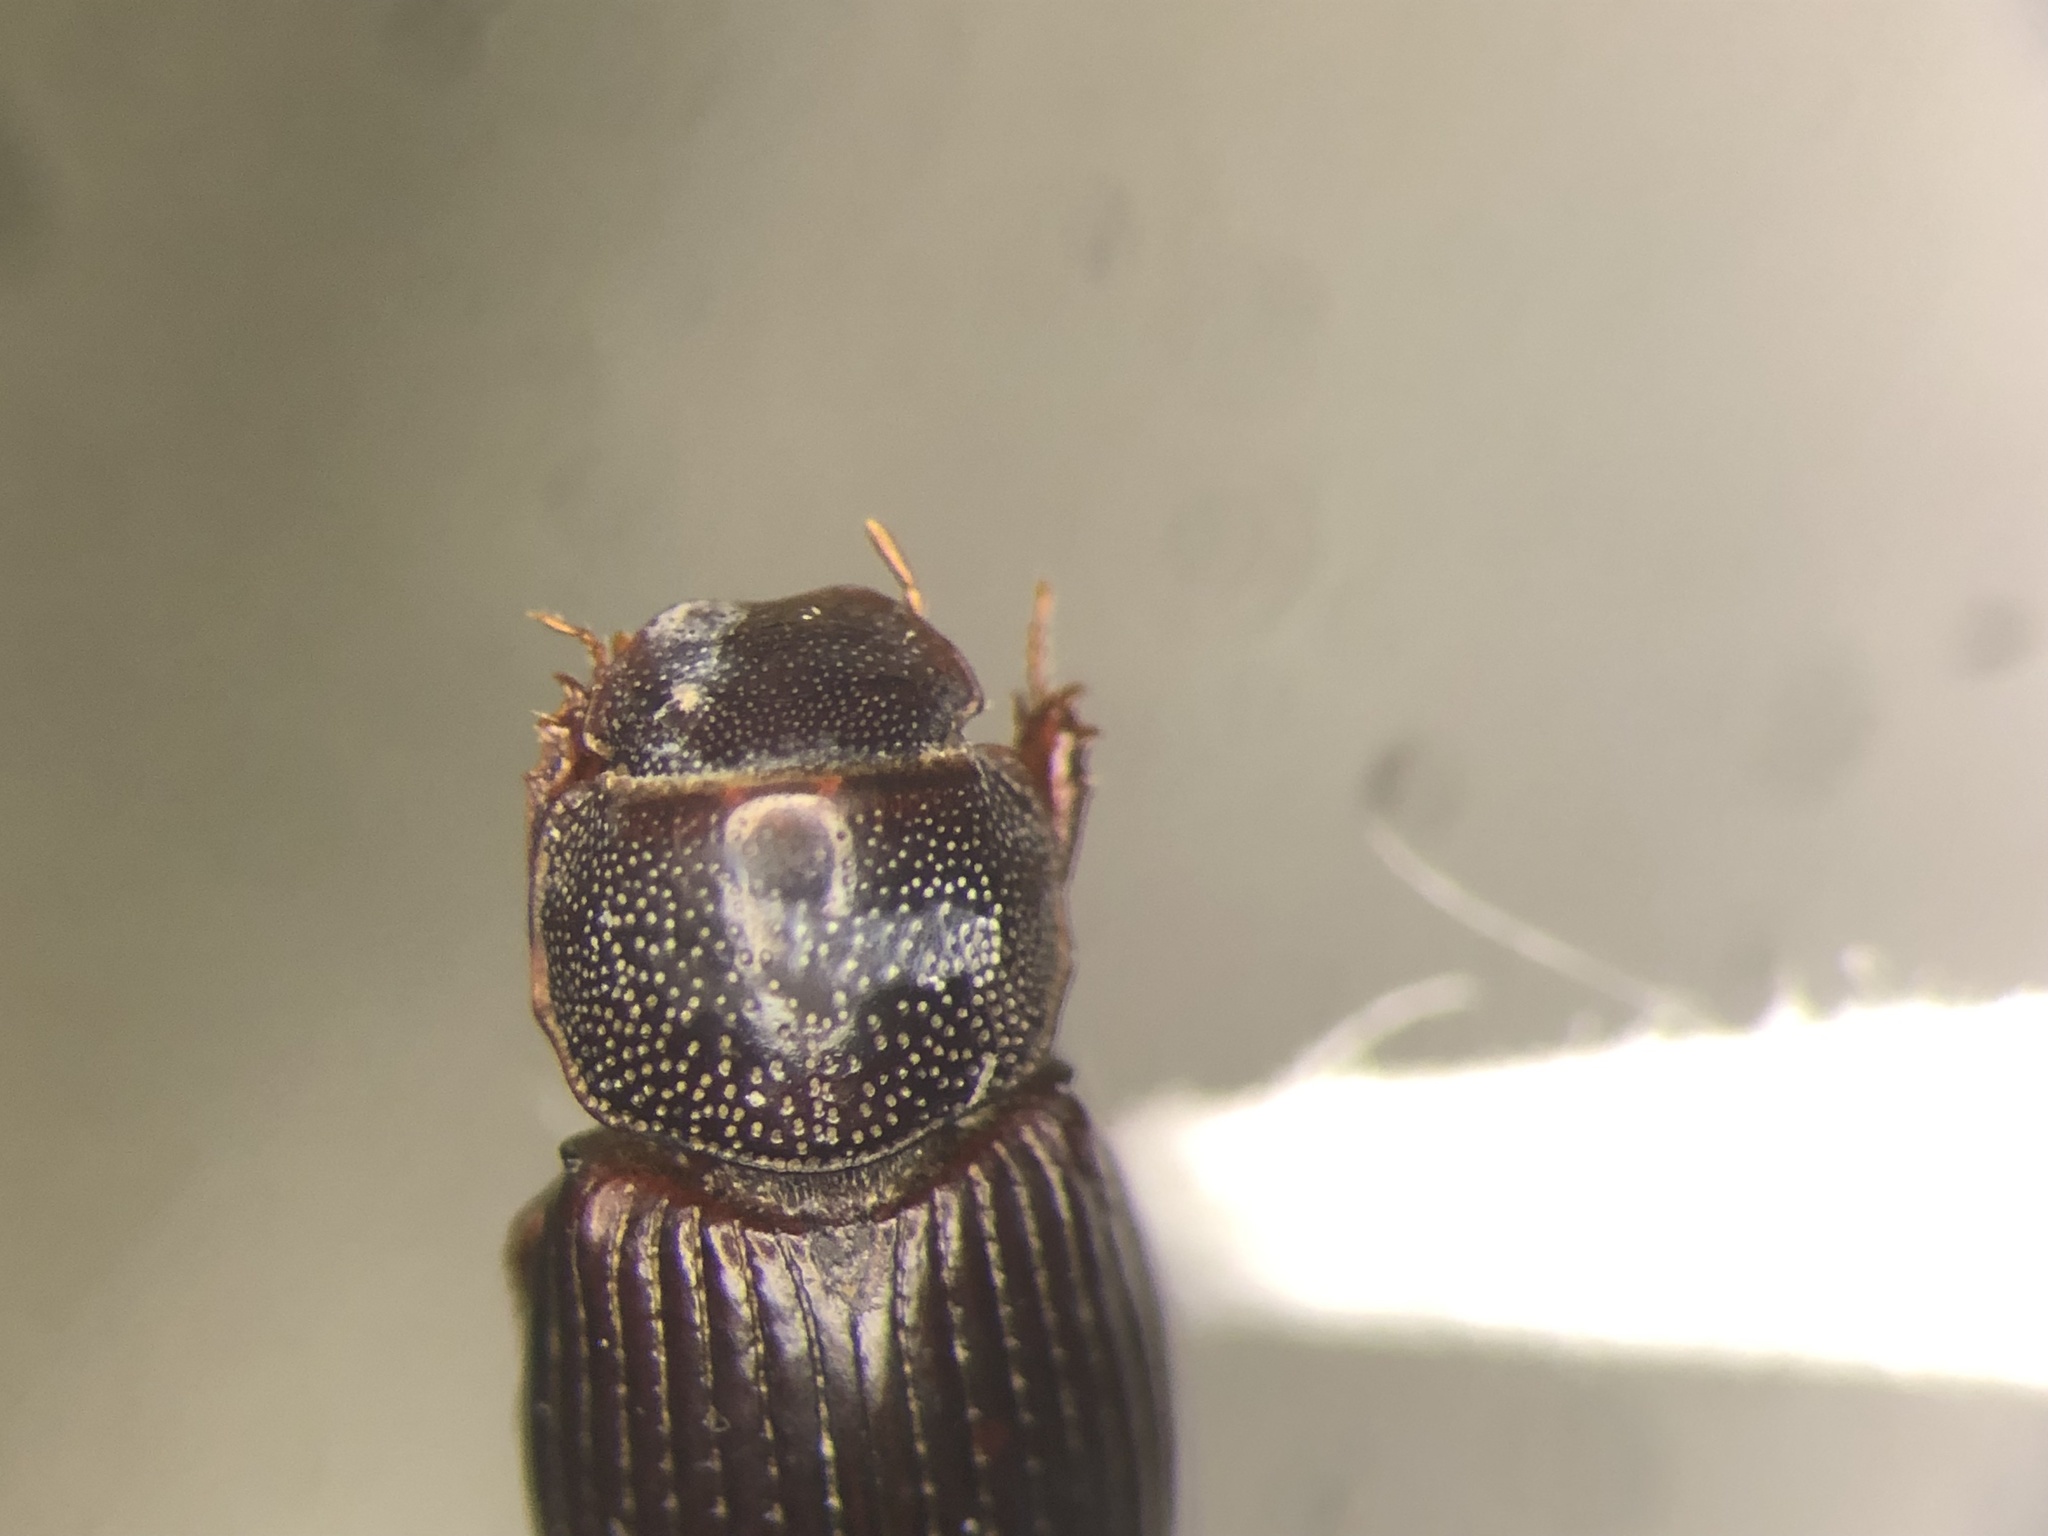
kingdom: Animalia
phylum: Arthropoda
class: Insecta
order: Coleoptera
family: Scarabaeidae
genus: Dialytellus
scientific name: Dialytellus dialytoides
